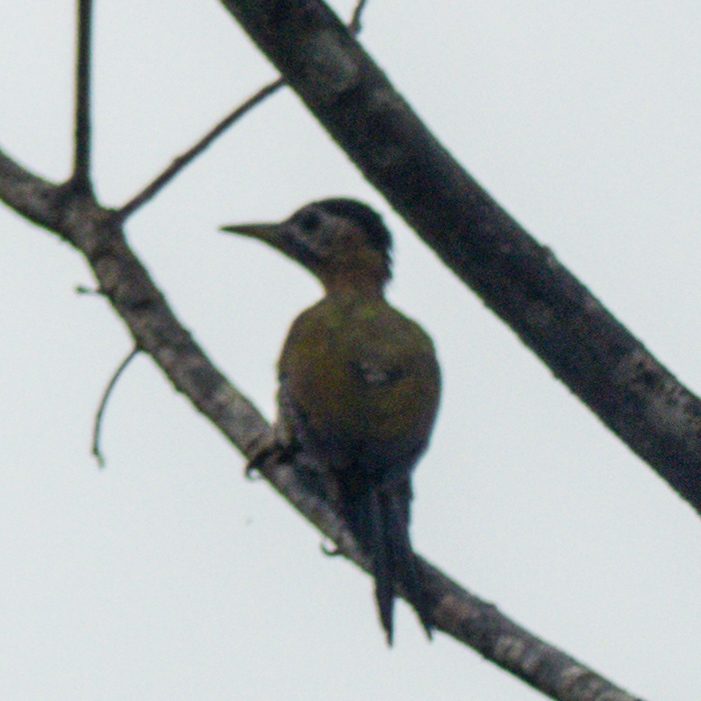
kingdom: Animalia
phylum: Chordata
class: Aves
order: Piciformes
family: Picidae
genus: Picus
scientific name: Picus vittatus
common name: Laced woodpecker
